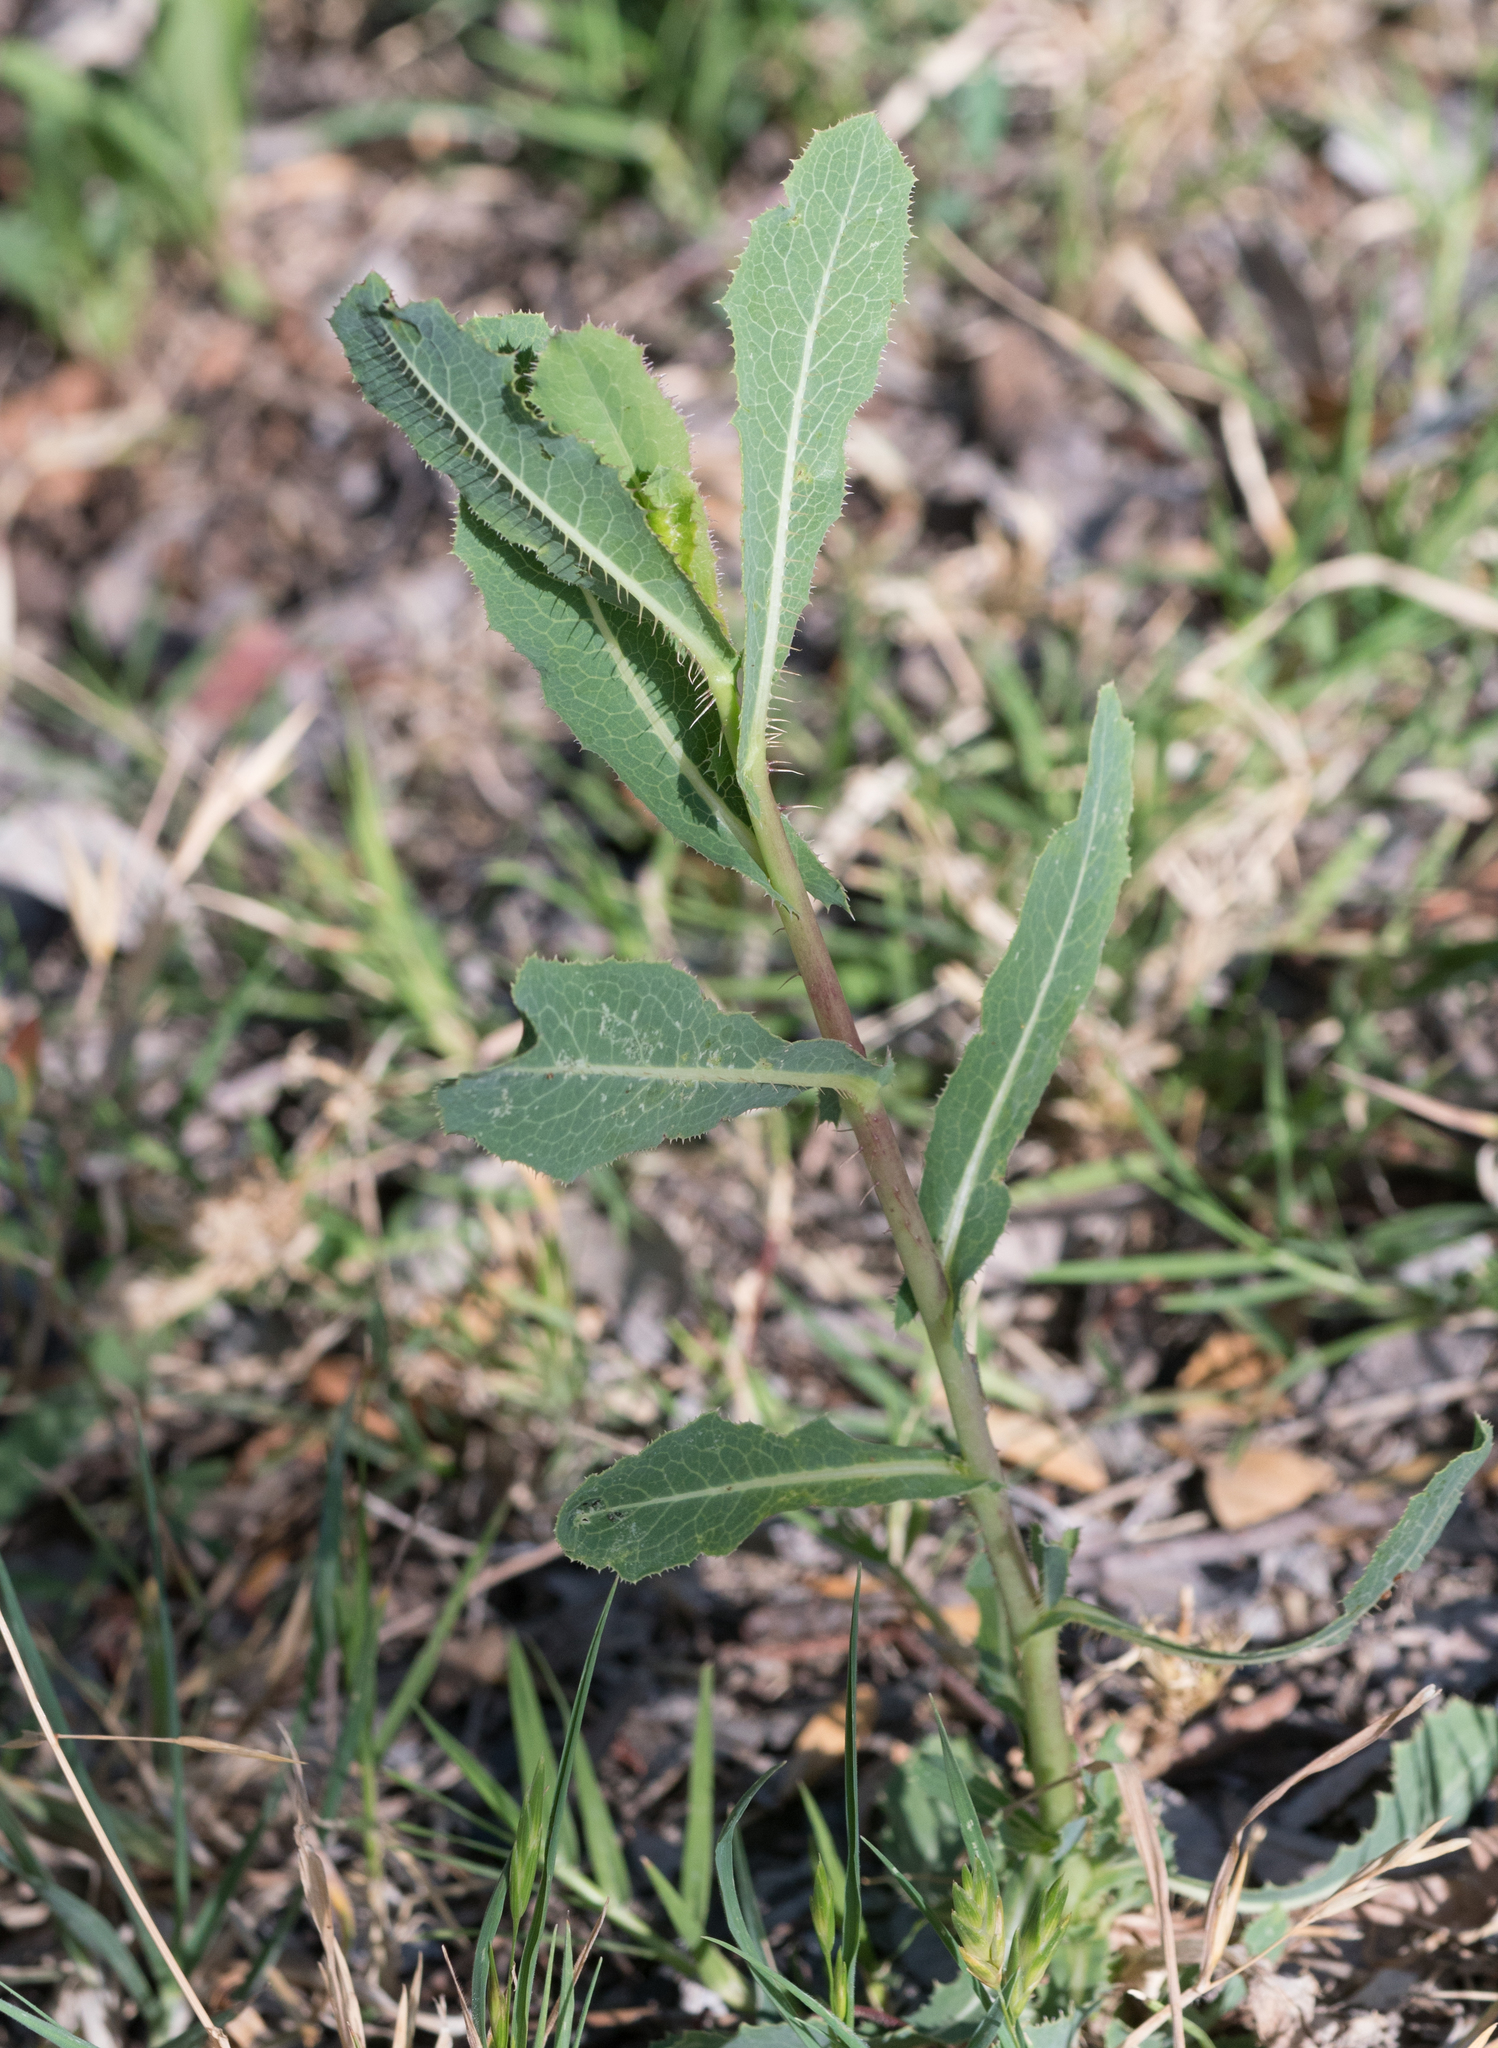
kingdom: Plantae
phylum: Tracheophyta
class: Magnoliopsida
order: Asterales
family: Asteraceae
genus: Lactuca
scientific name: Lactuca serriola
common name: Prickly lettuce
